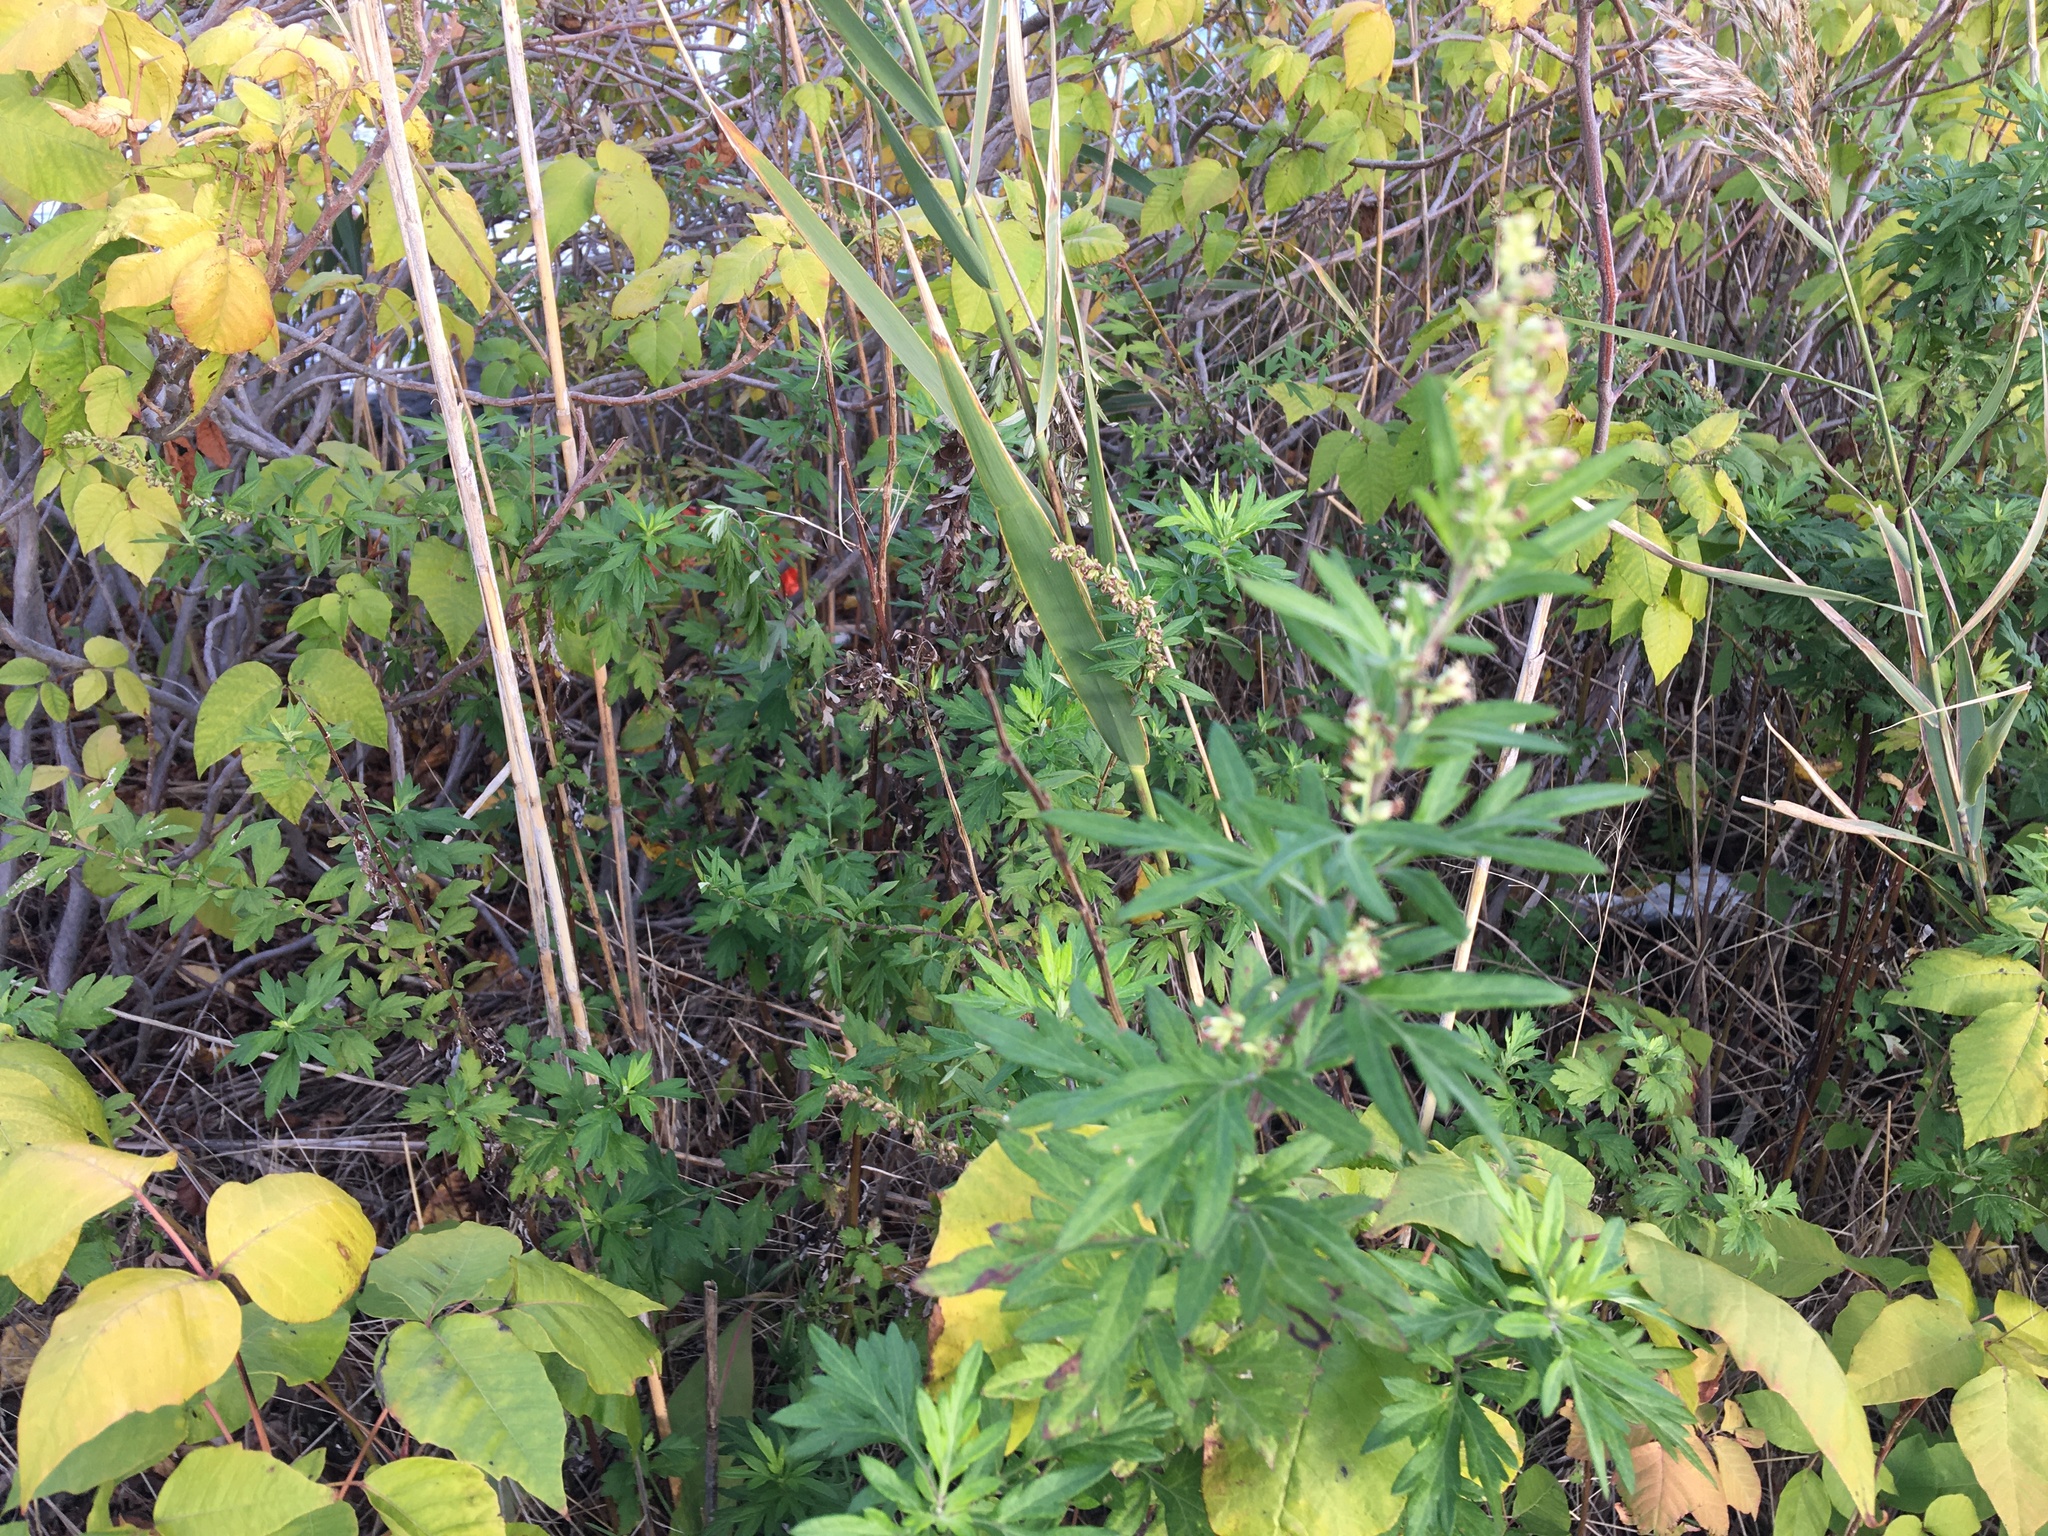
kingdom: Plantae
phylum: Tracheophyta
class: Magnoliopsida
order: Asterales
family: Asteraceae
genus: Artemisia
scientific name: Artemisia vulgaris
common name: Mugwort
